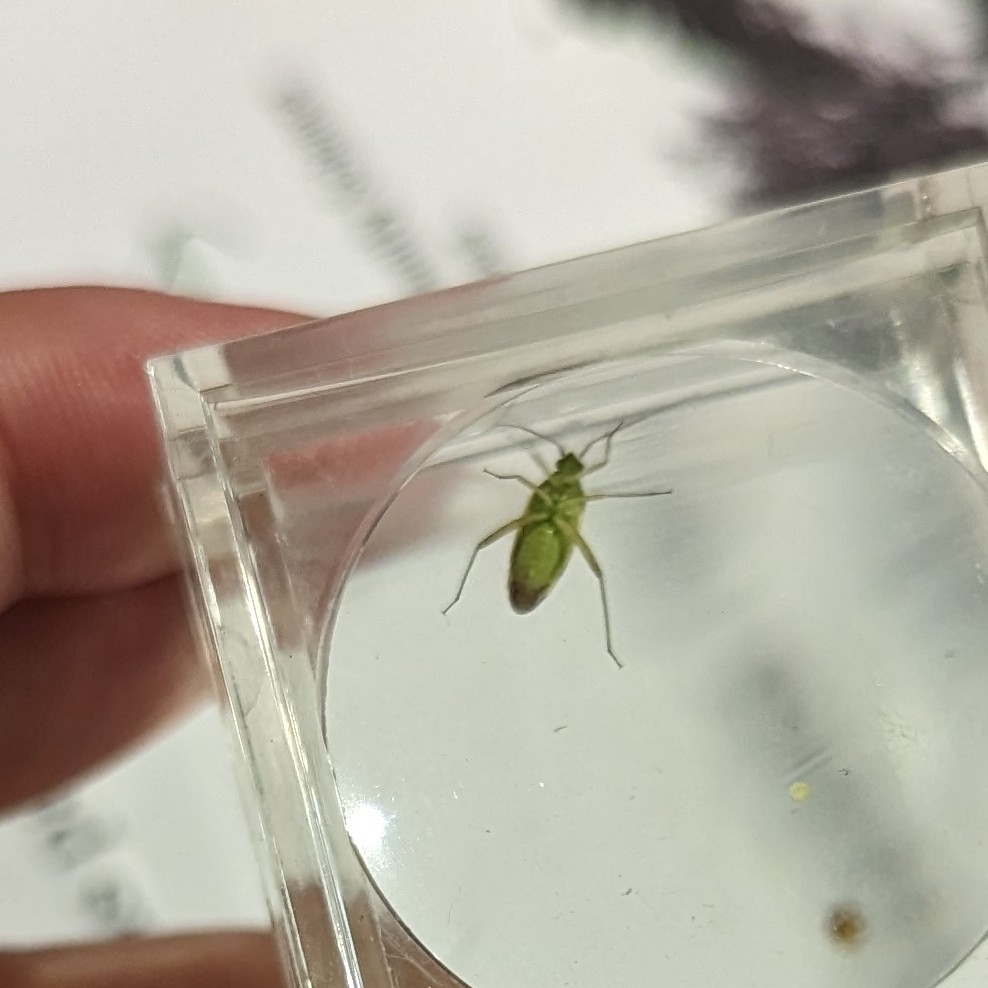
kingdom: Animalia
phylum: Arthropoda
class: Insecta
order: Hemiptera
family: Miridae
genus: Closterotomus
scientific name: Closterotomus norvegicus
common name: Plant bug
